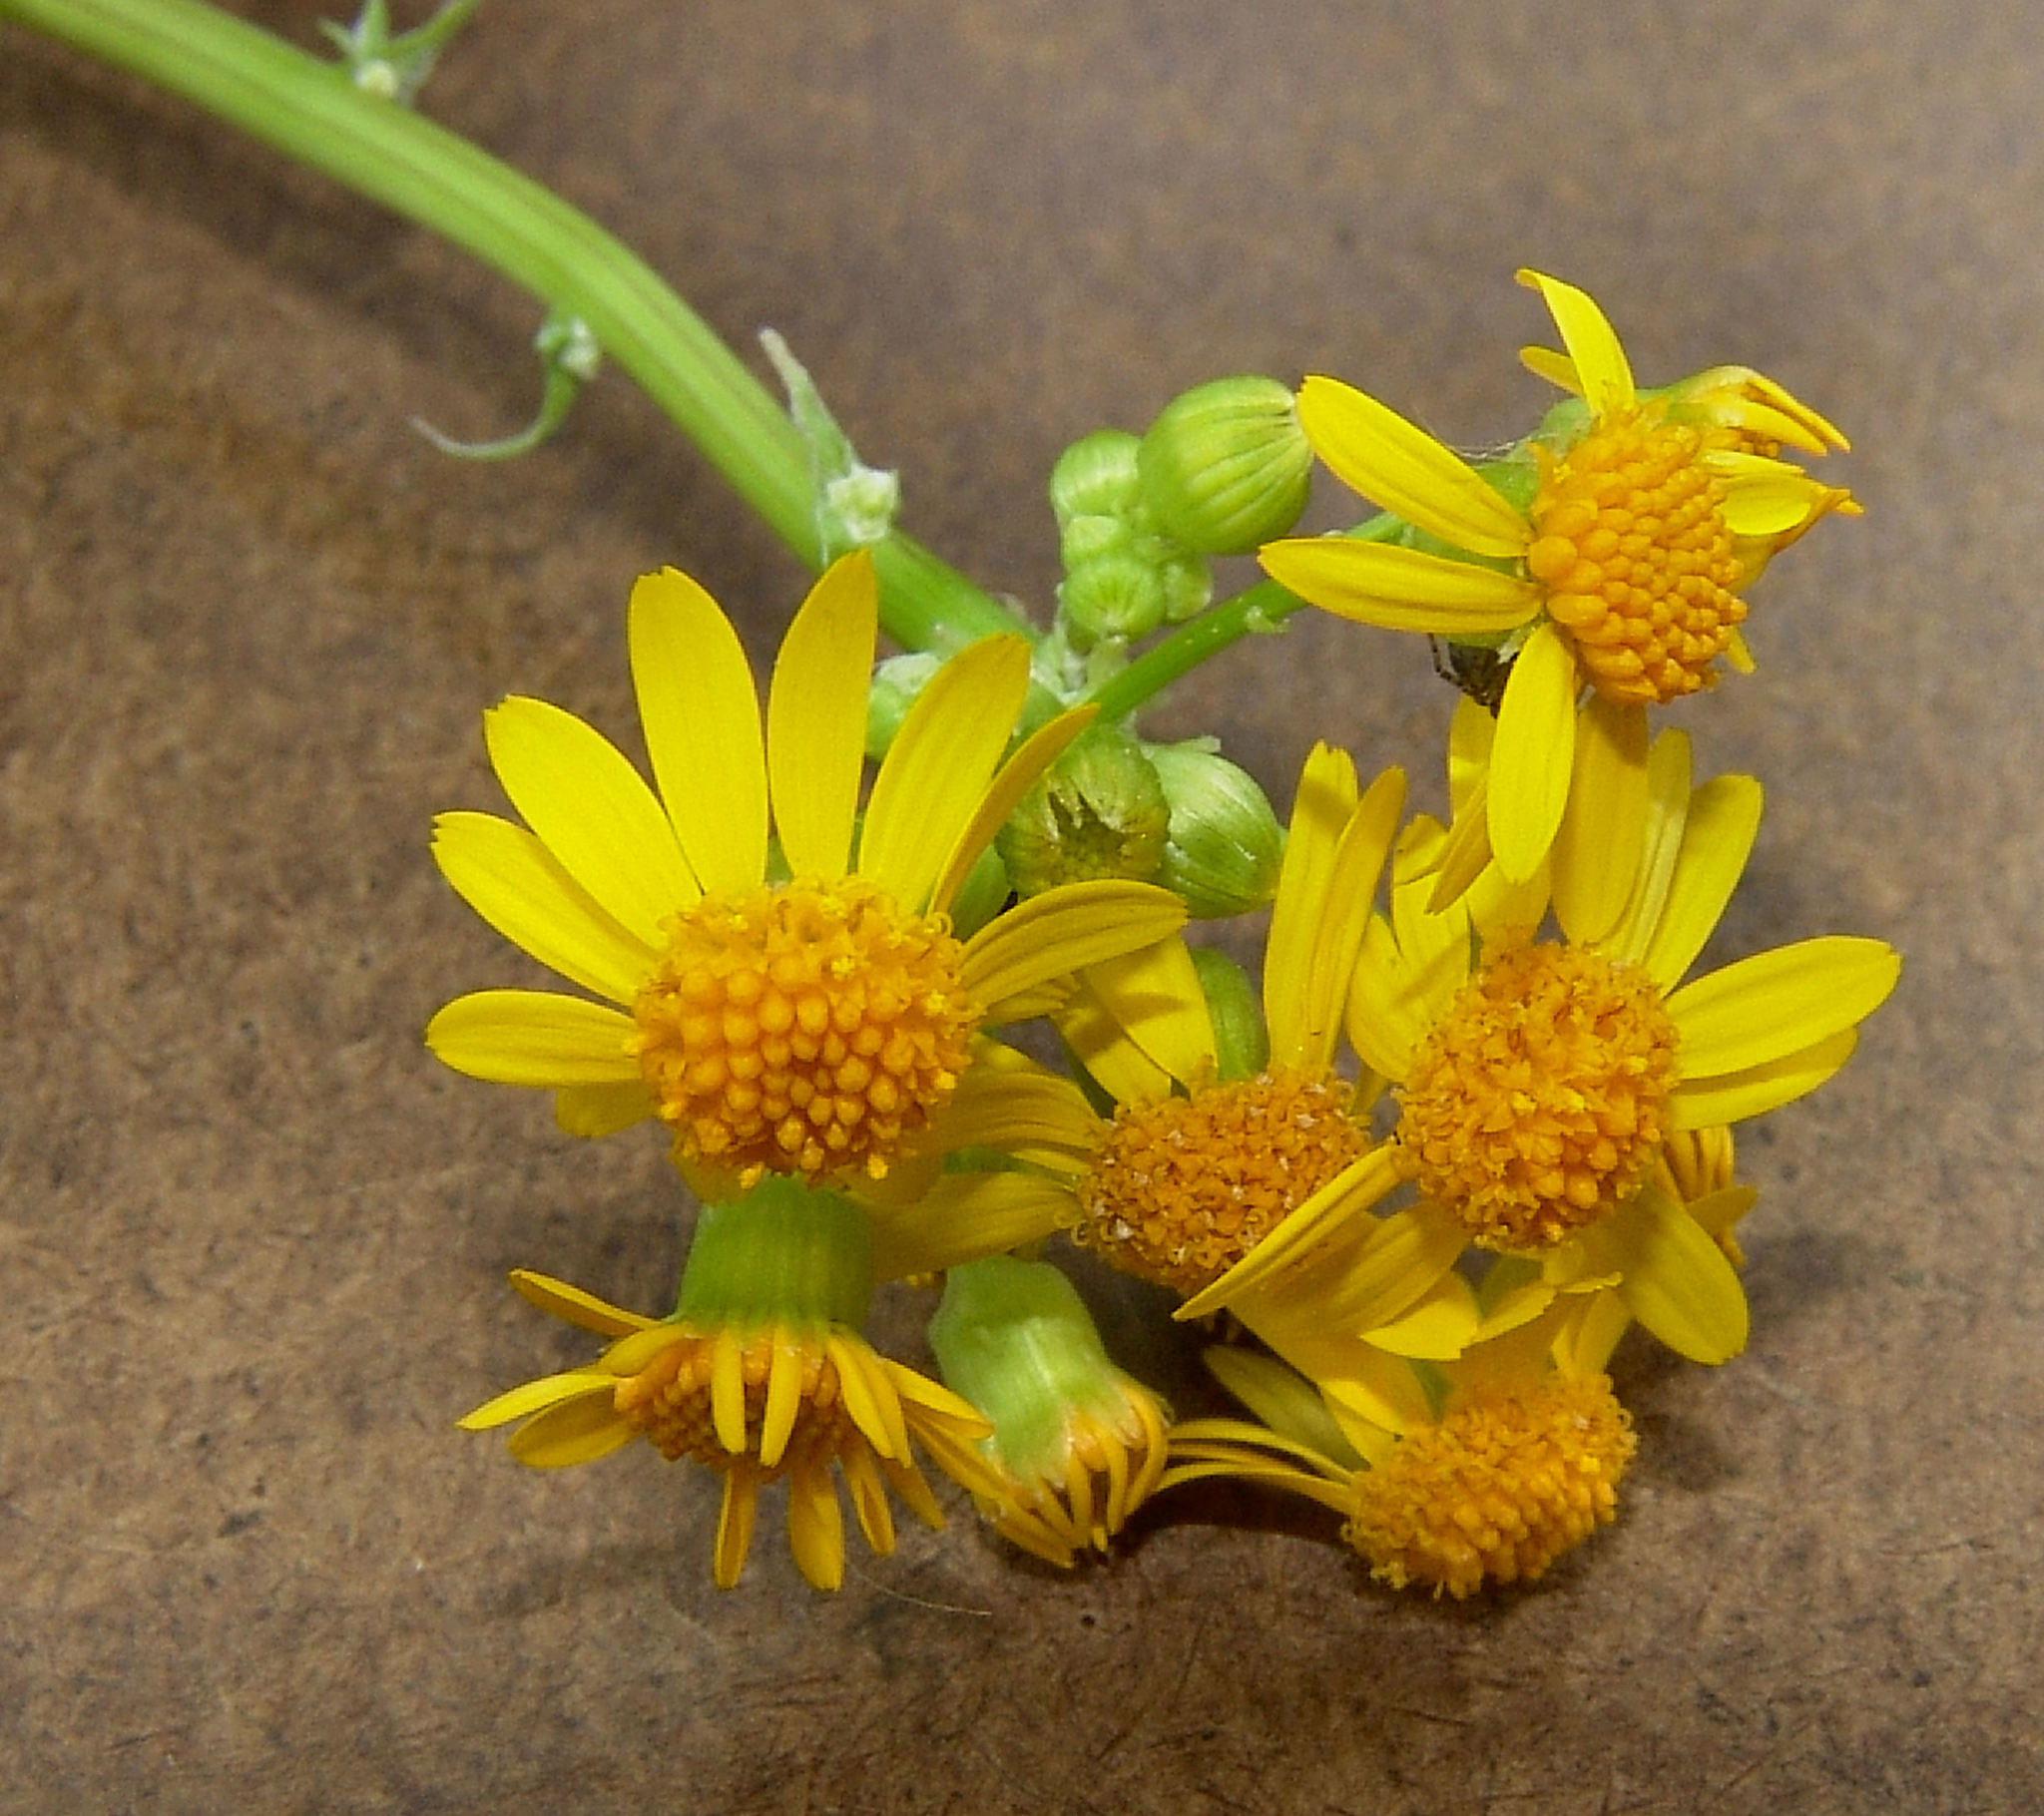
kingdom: Plantae
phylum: Tracheophyta
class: Magnoliopsida
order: Asterales
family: Asteraceae
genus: Packera
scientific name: Packera glabella
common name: Butterweed
